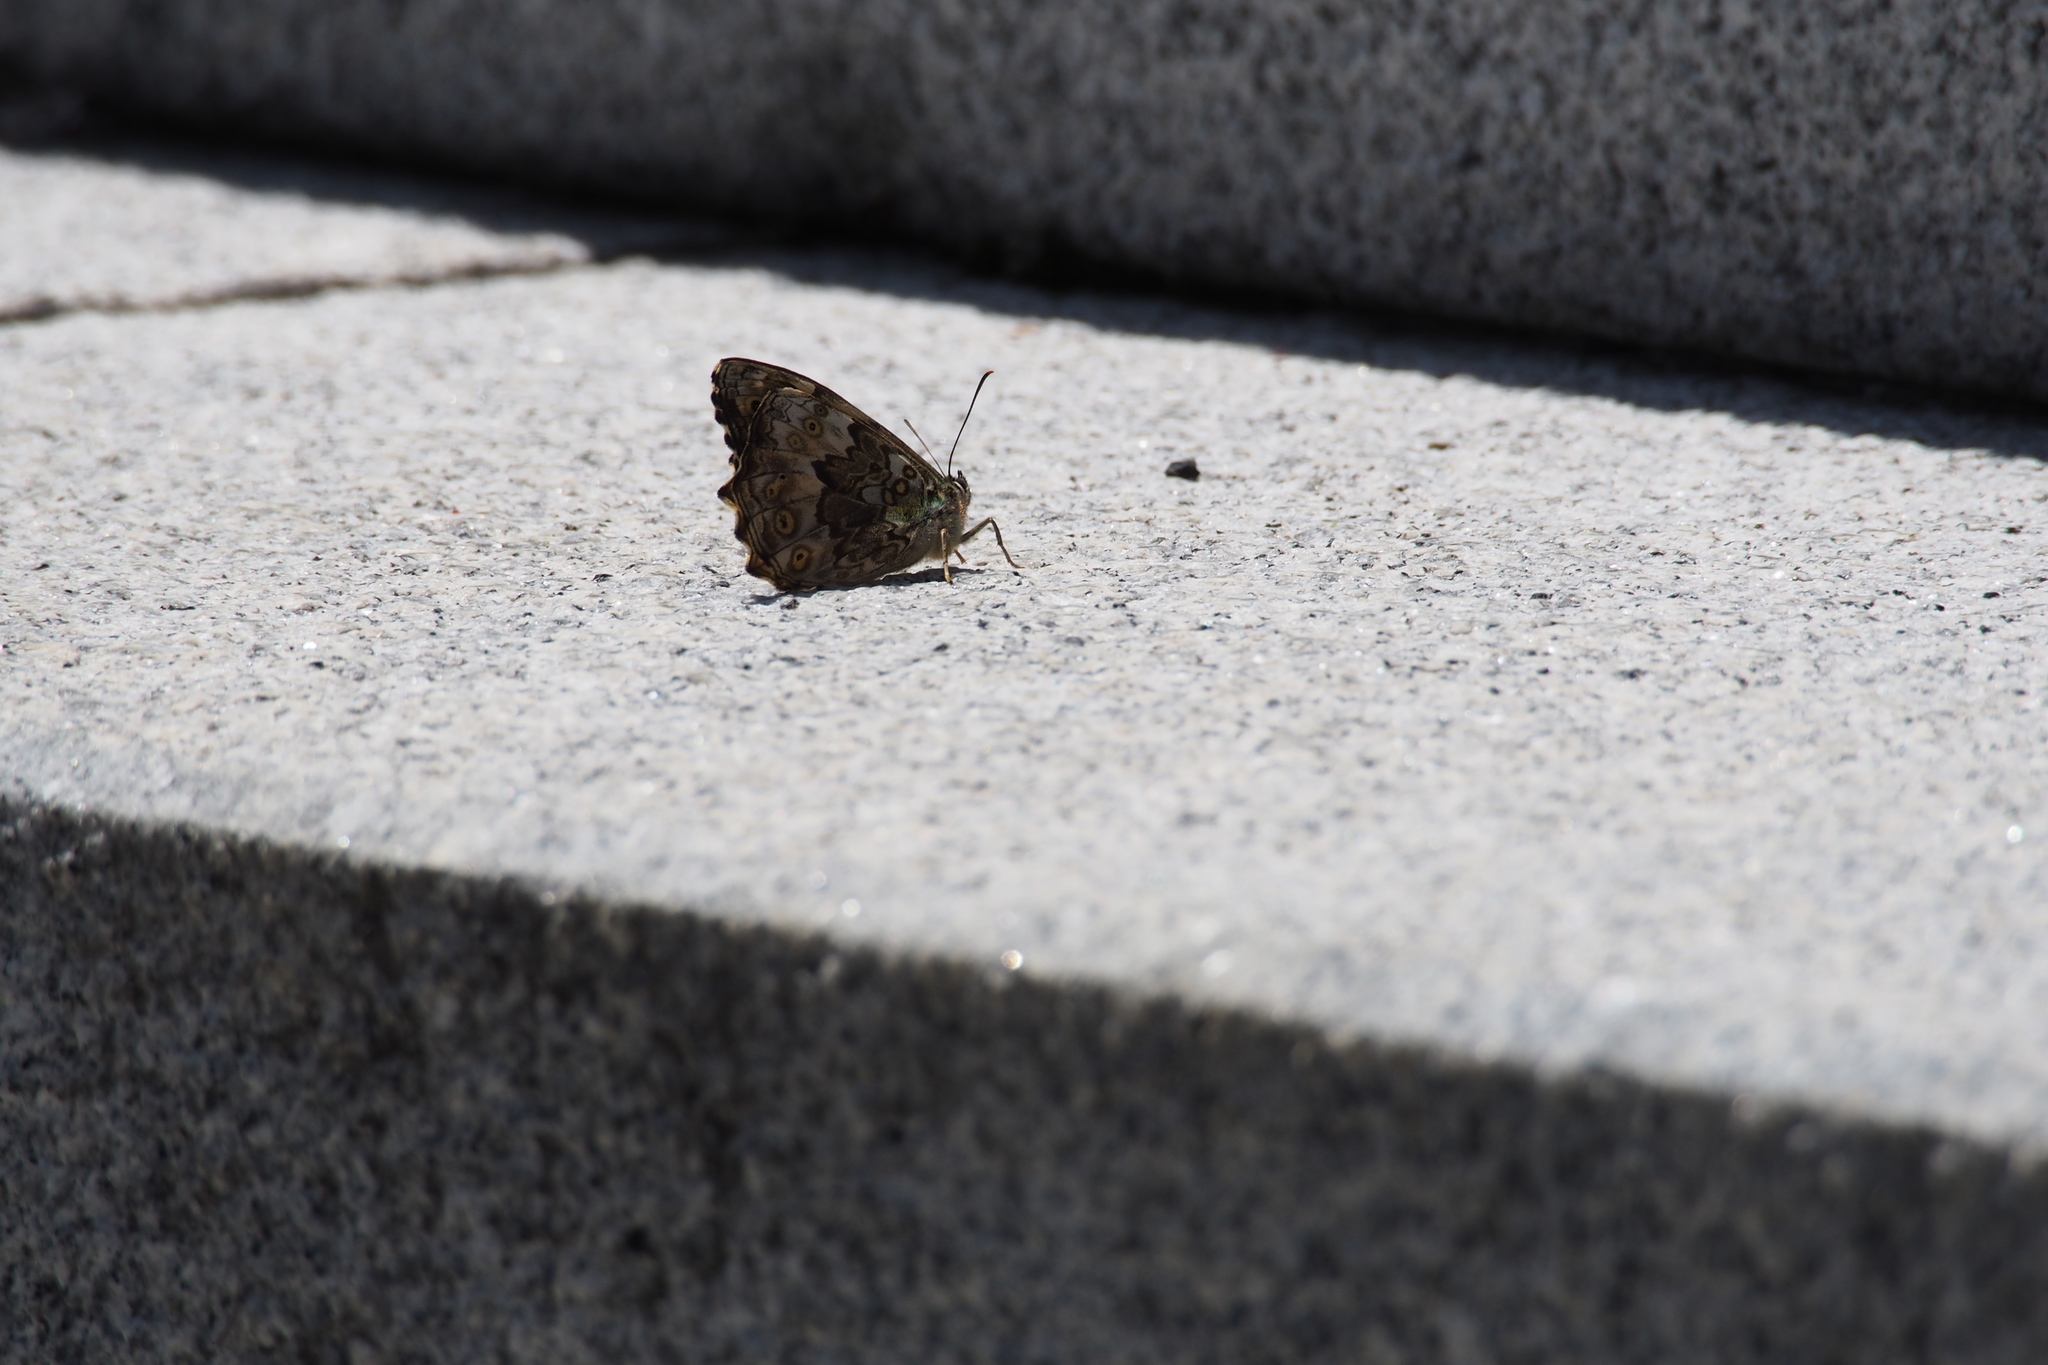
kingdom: Animalia
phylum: Arthropoda
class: Insecta
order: Lepidoptera
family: Nymphalidae
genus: Neope
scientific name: Neope goschkevitschii
